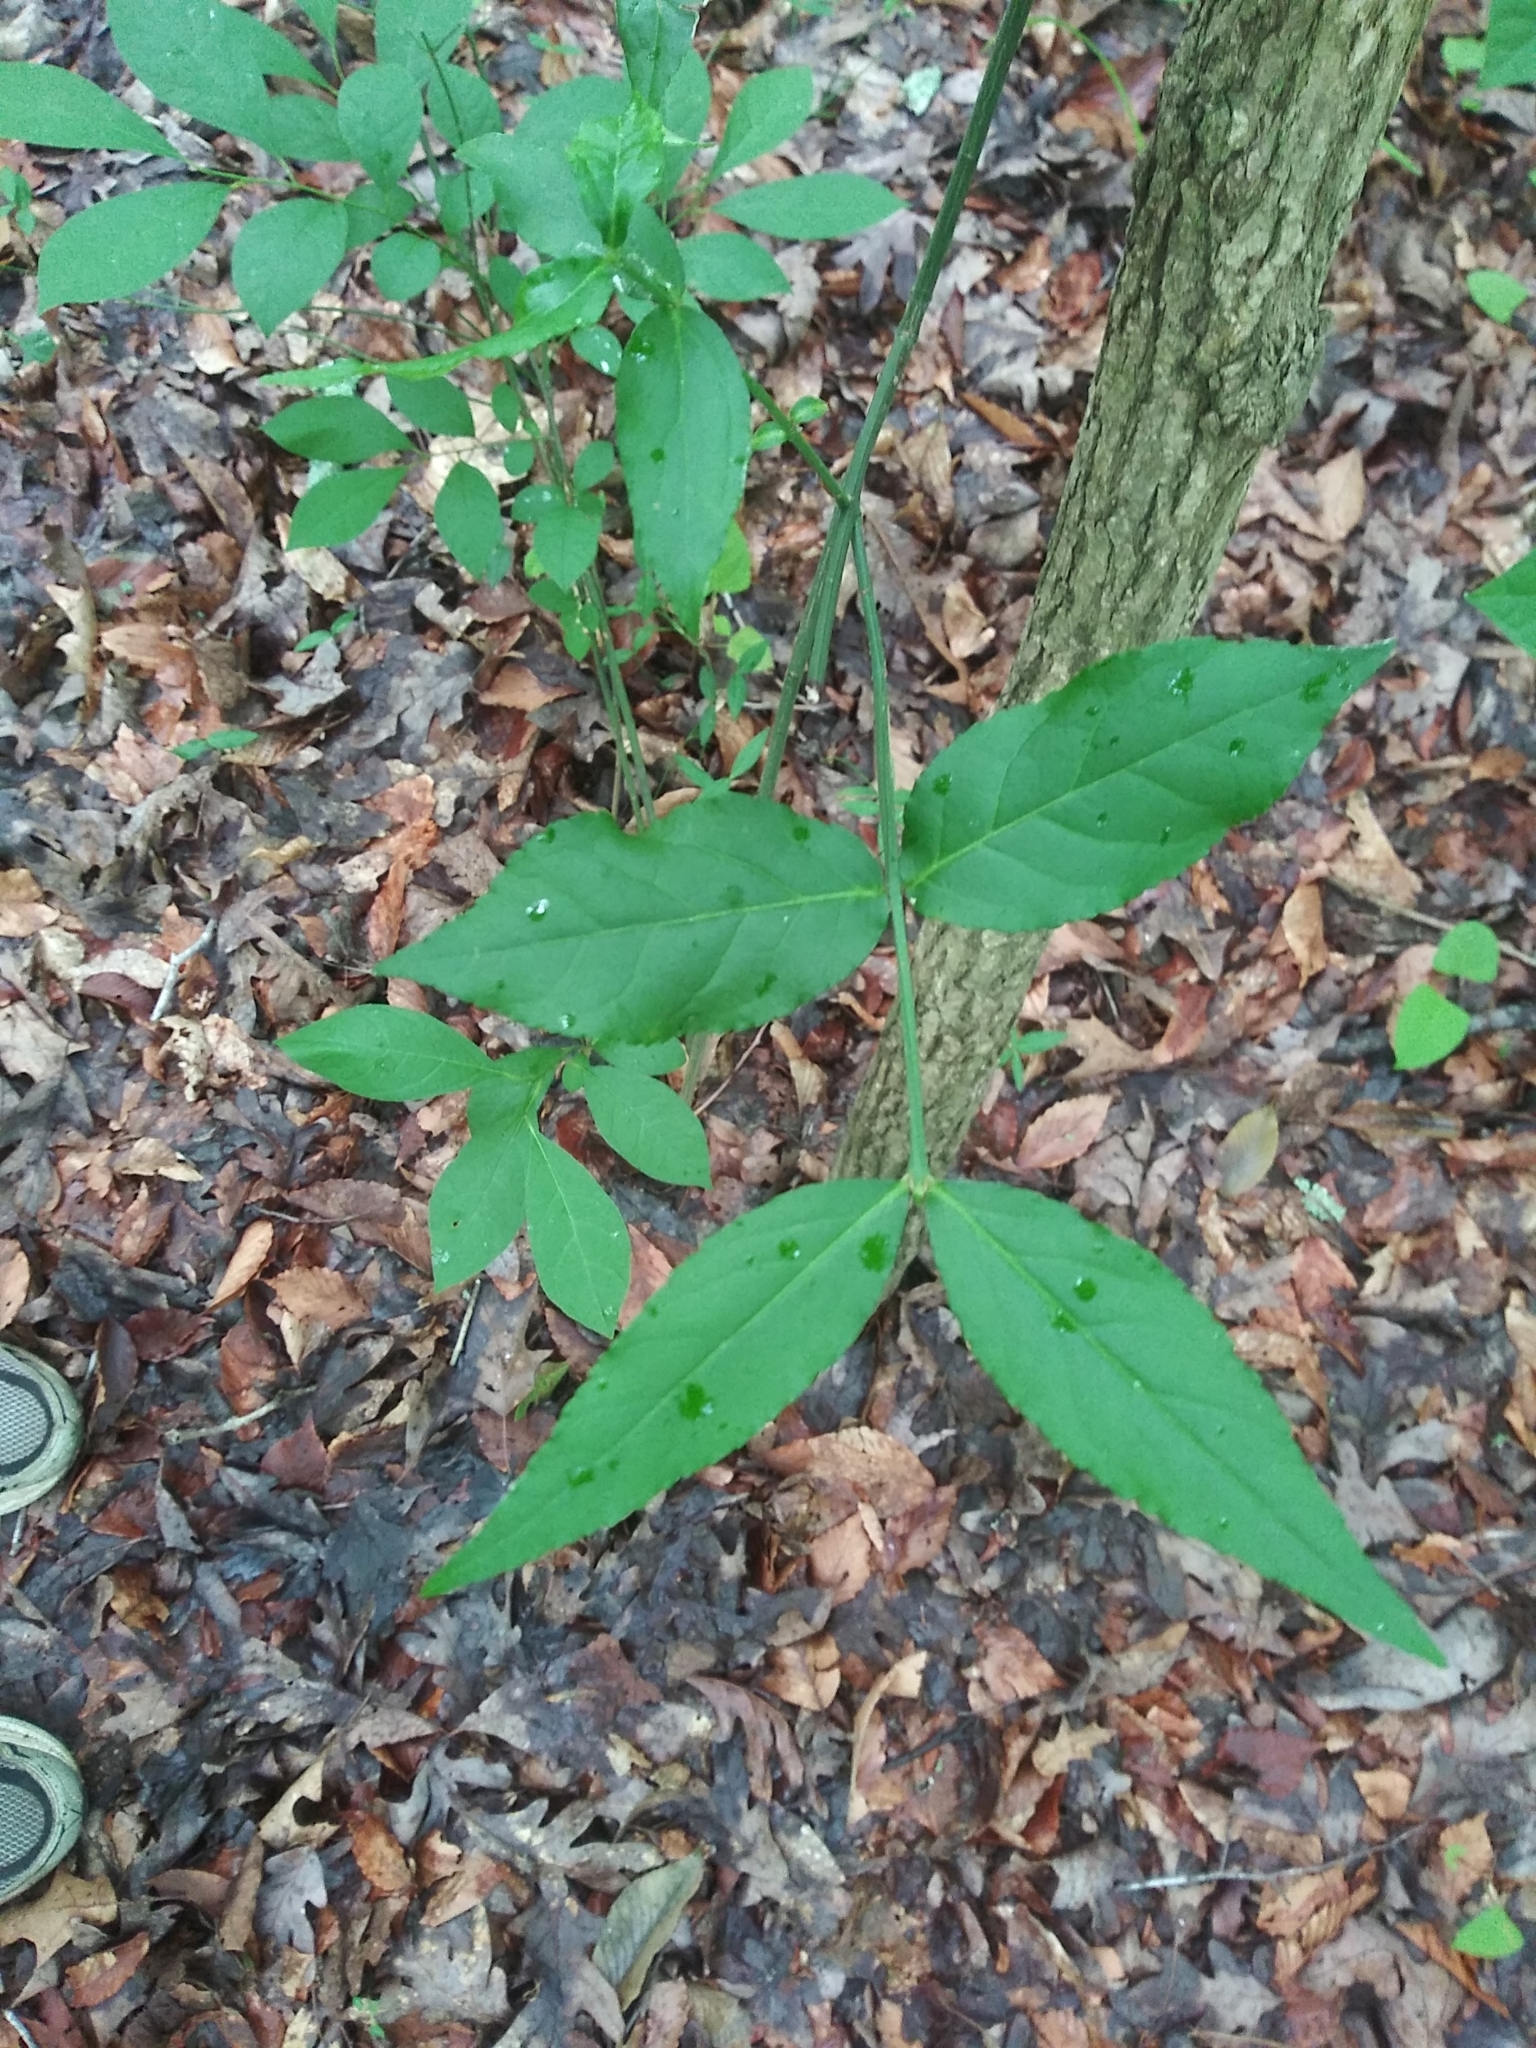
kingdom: Plantae
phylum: Tracheophyta
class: Magnoliopsida
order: Celastrales
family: Celastraceae
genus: Euonymus
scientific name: Euonymus americanus
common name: Bursting-heart
